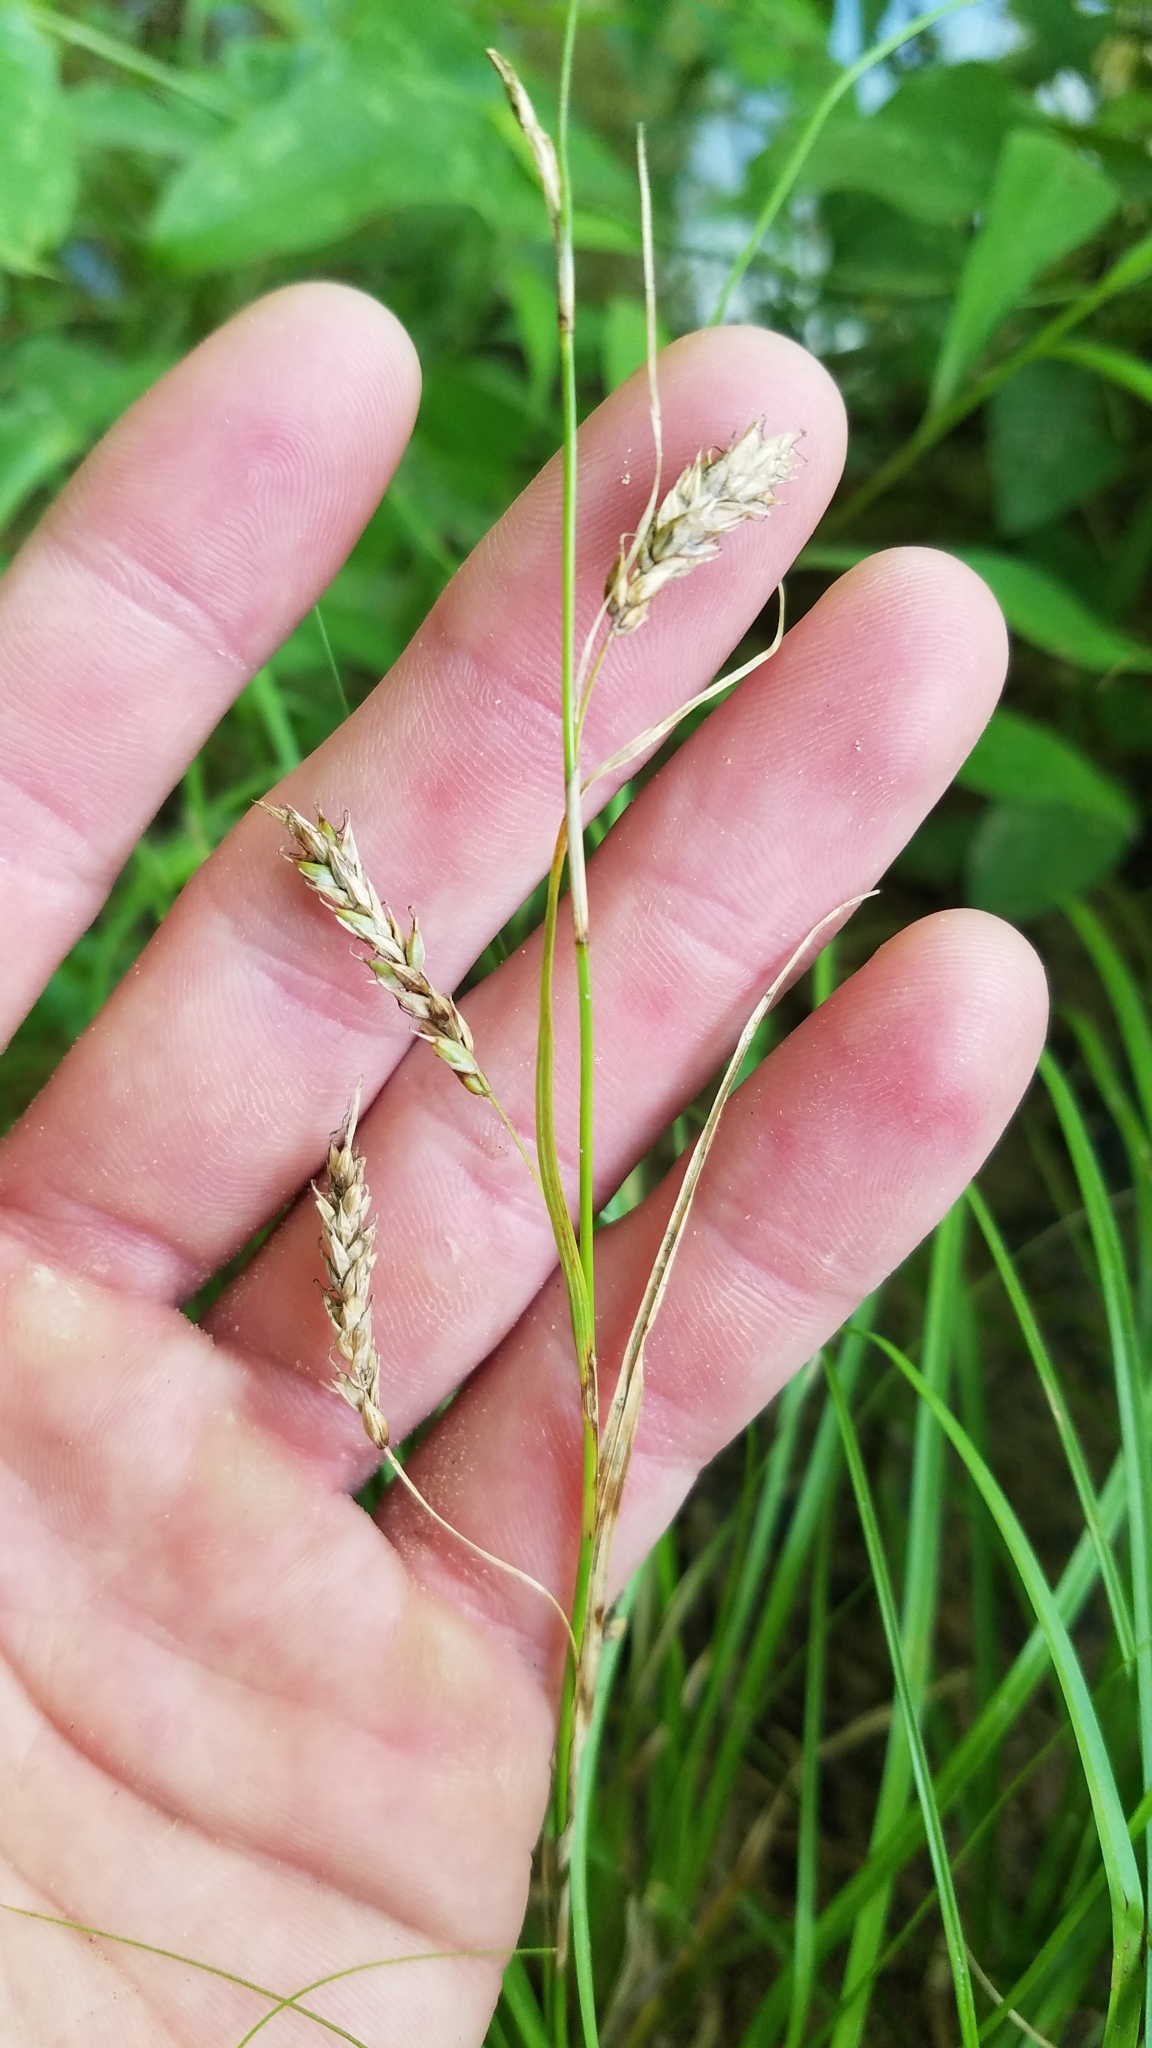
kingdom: Plantae
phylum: Tracheophyta
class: Liliopsida
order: Poales
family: Cyperaceae
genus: Carex
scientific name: Carex cherokeensis
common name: Cherokee sedge
